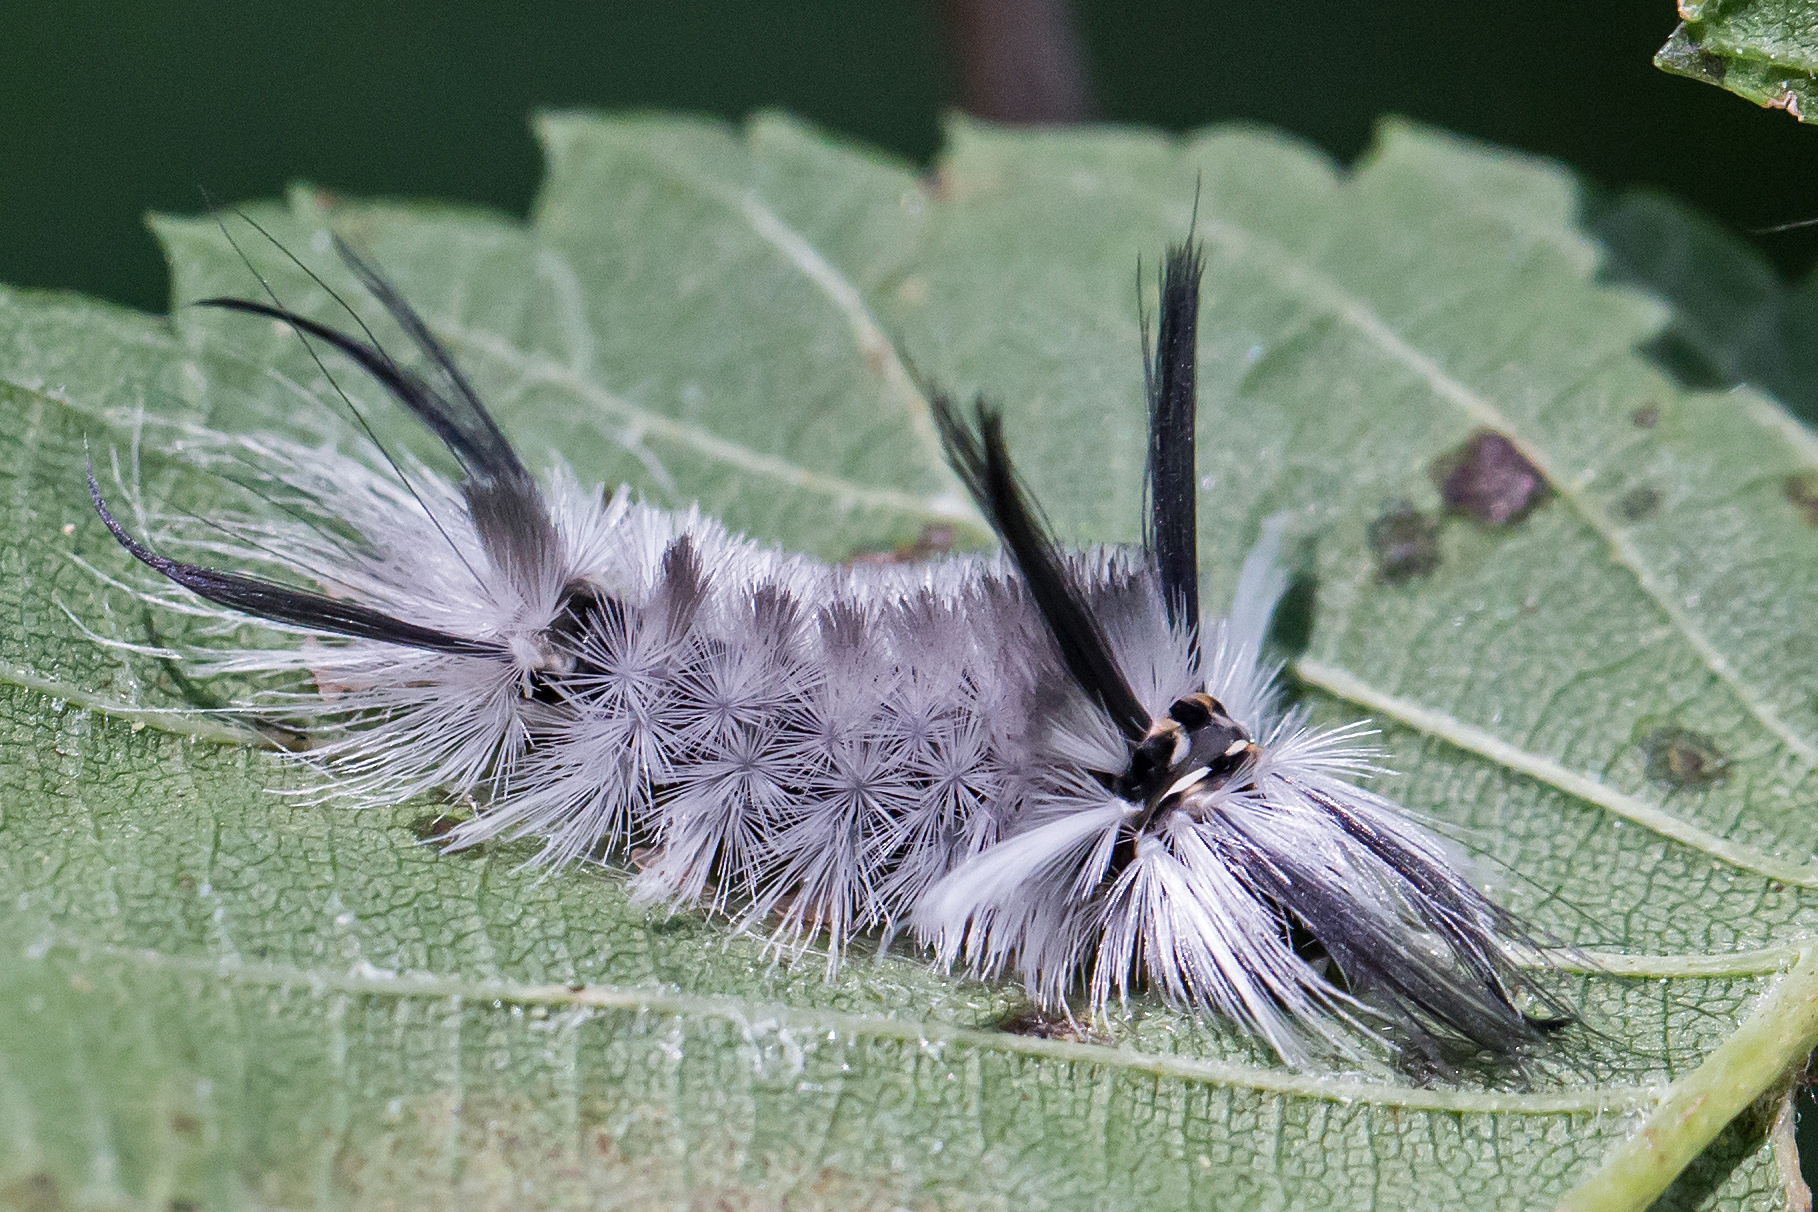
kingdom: Animalia
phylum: Arthropoda
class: Insecta
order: Lepidoptera
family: Erebidae
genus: Halysidota
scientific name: Halysidota tessellaris
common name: Banded tussock moth
